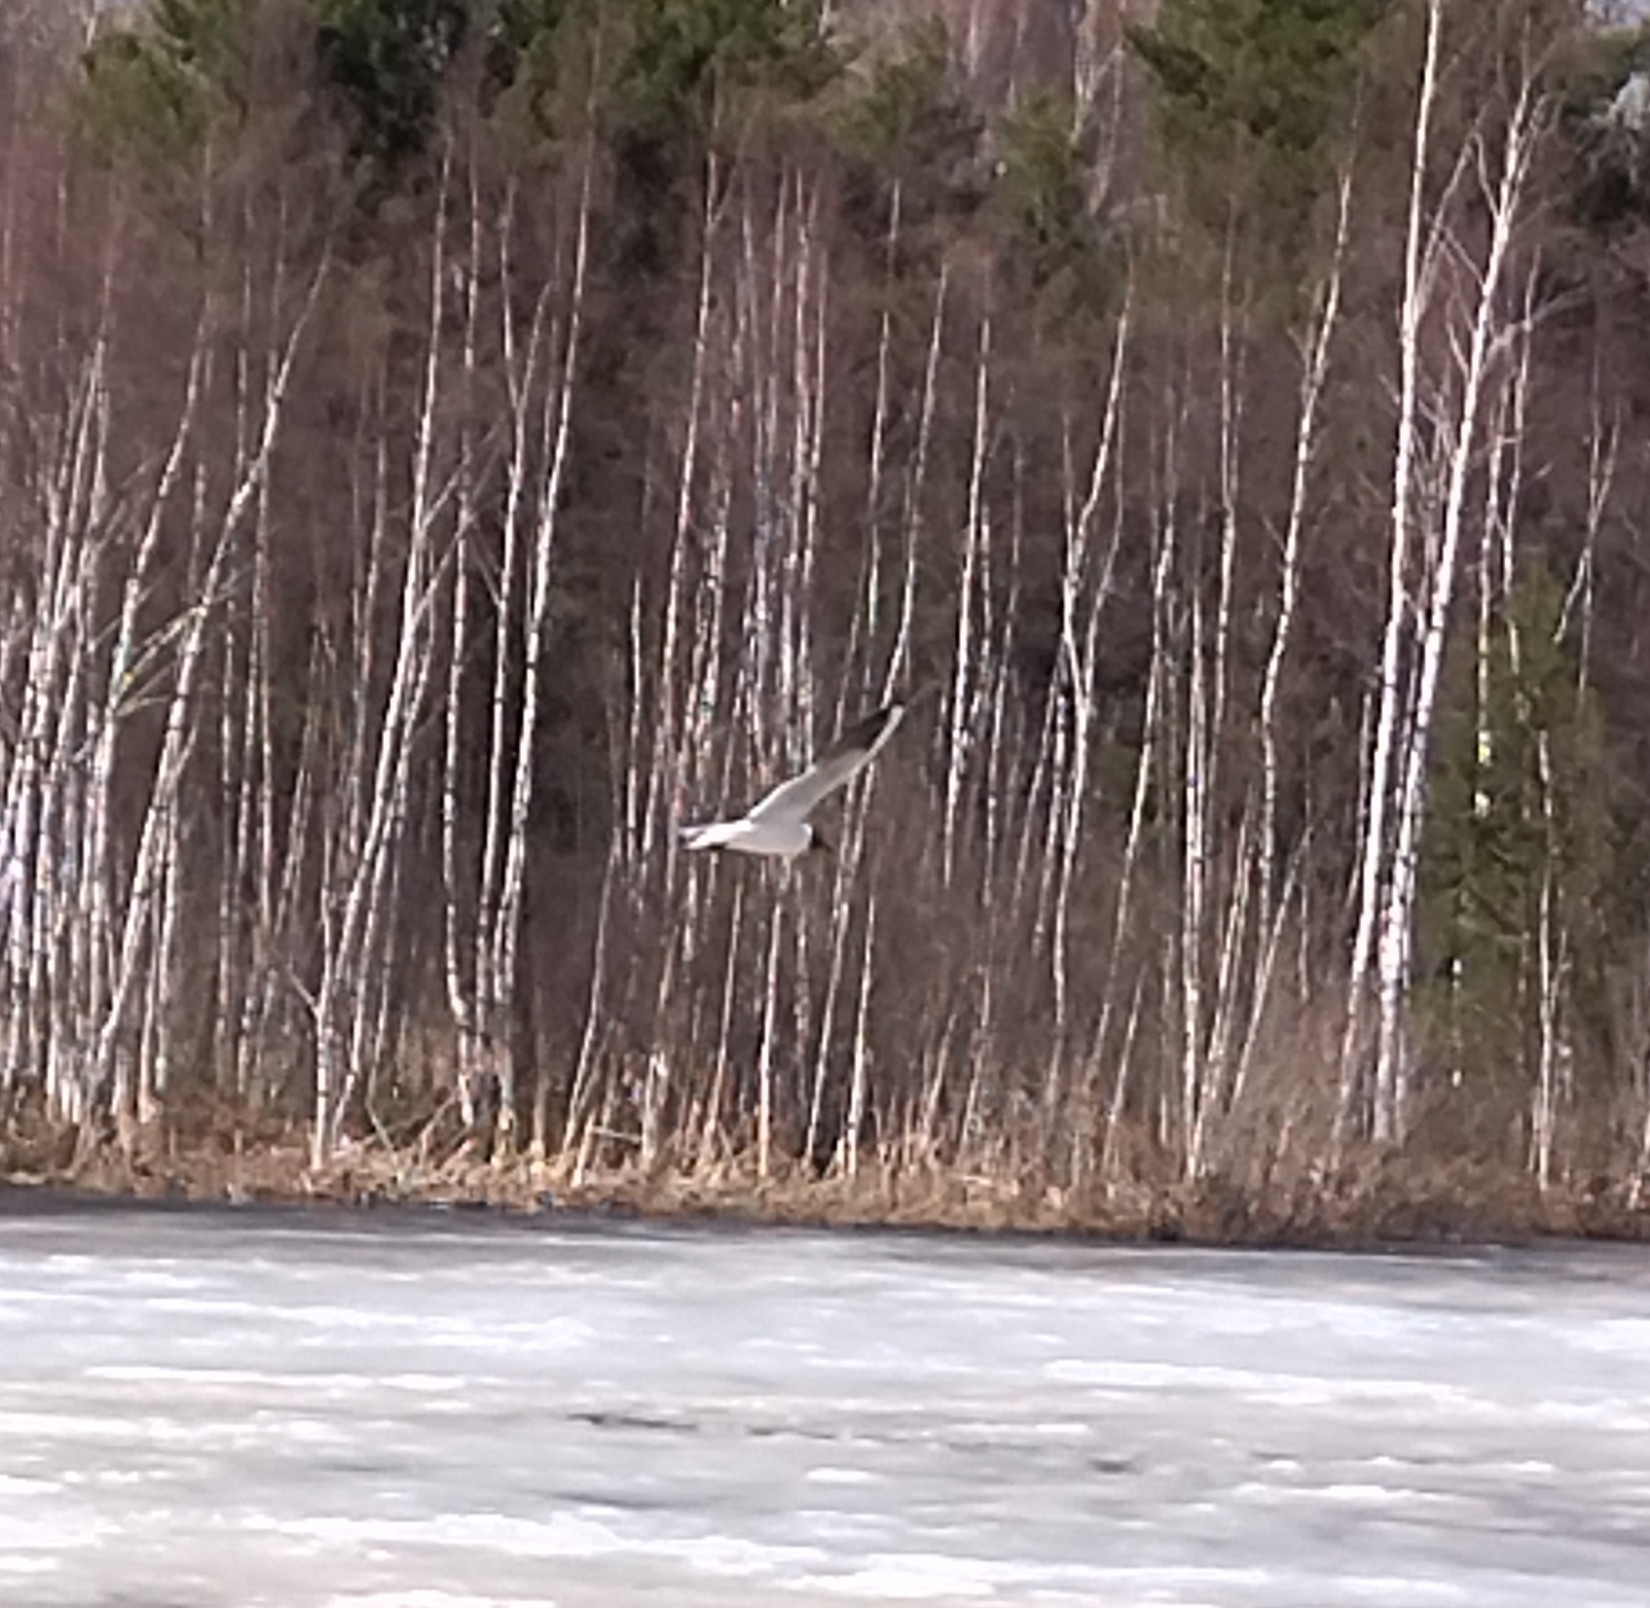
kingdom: Animalia
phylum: Chordata
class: Aves
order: Charadriiformes
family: Laridae
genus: Chroicocephalus
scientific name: Chroicocephalus ridibundus
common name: Black-headed gull
